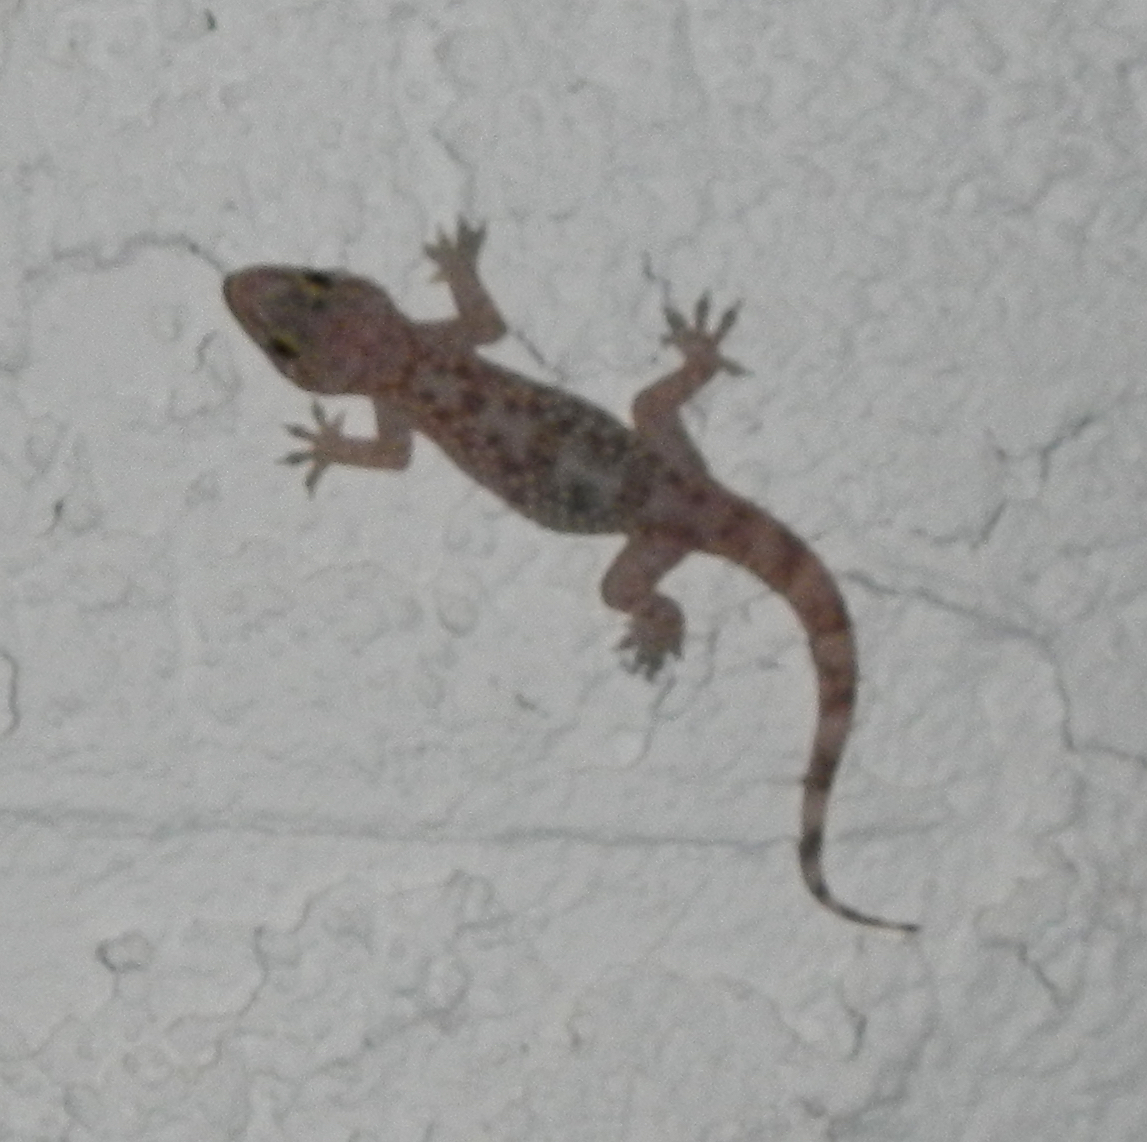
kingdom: Animalia
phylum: Chordata
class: Squamata
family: Gekkonidae
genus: Hemidactylus
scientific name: Hemidactylus turcicus
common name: Turkish gecko
